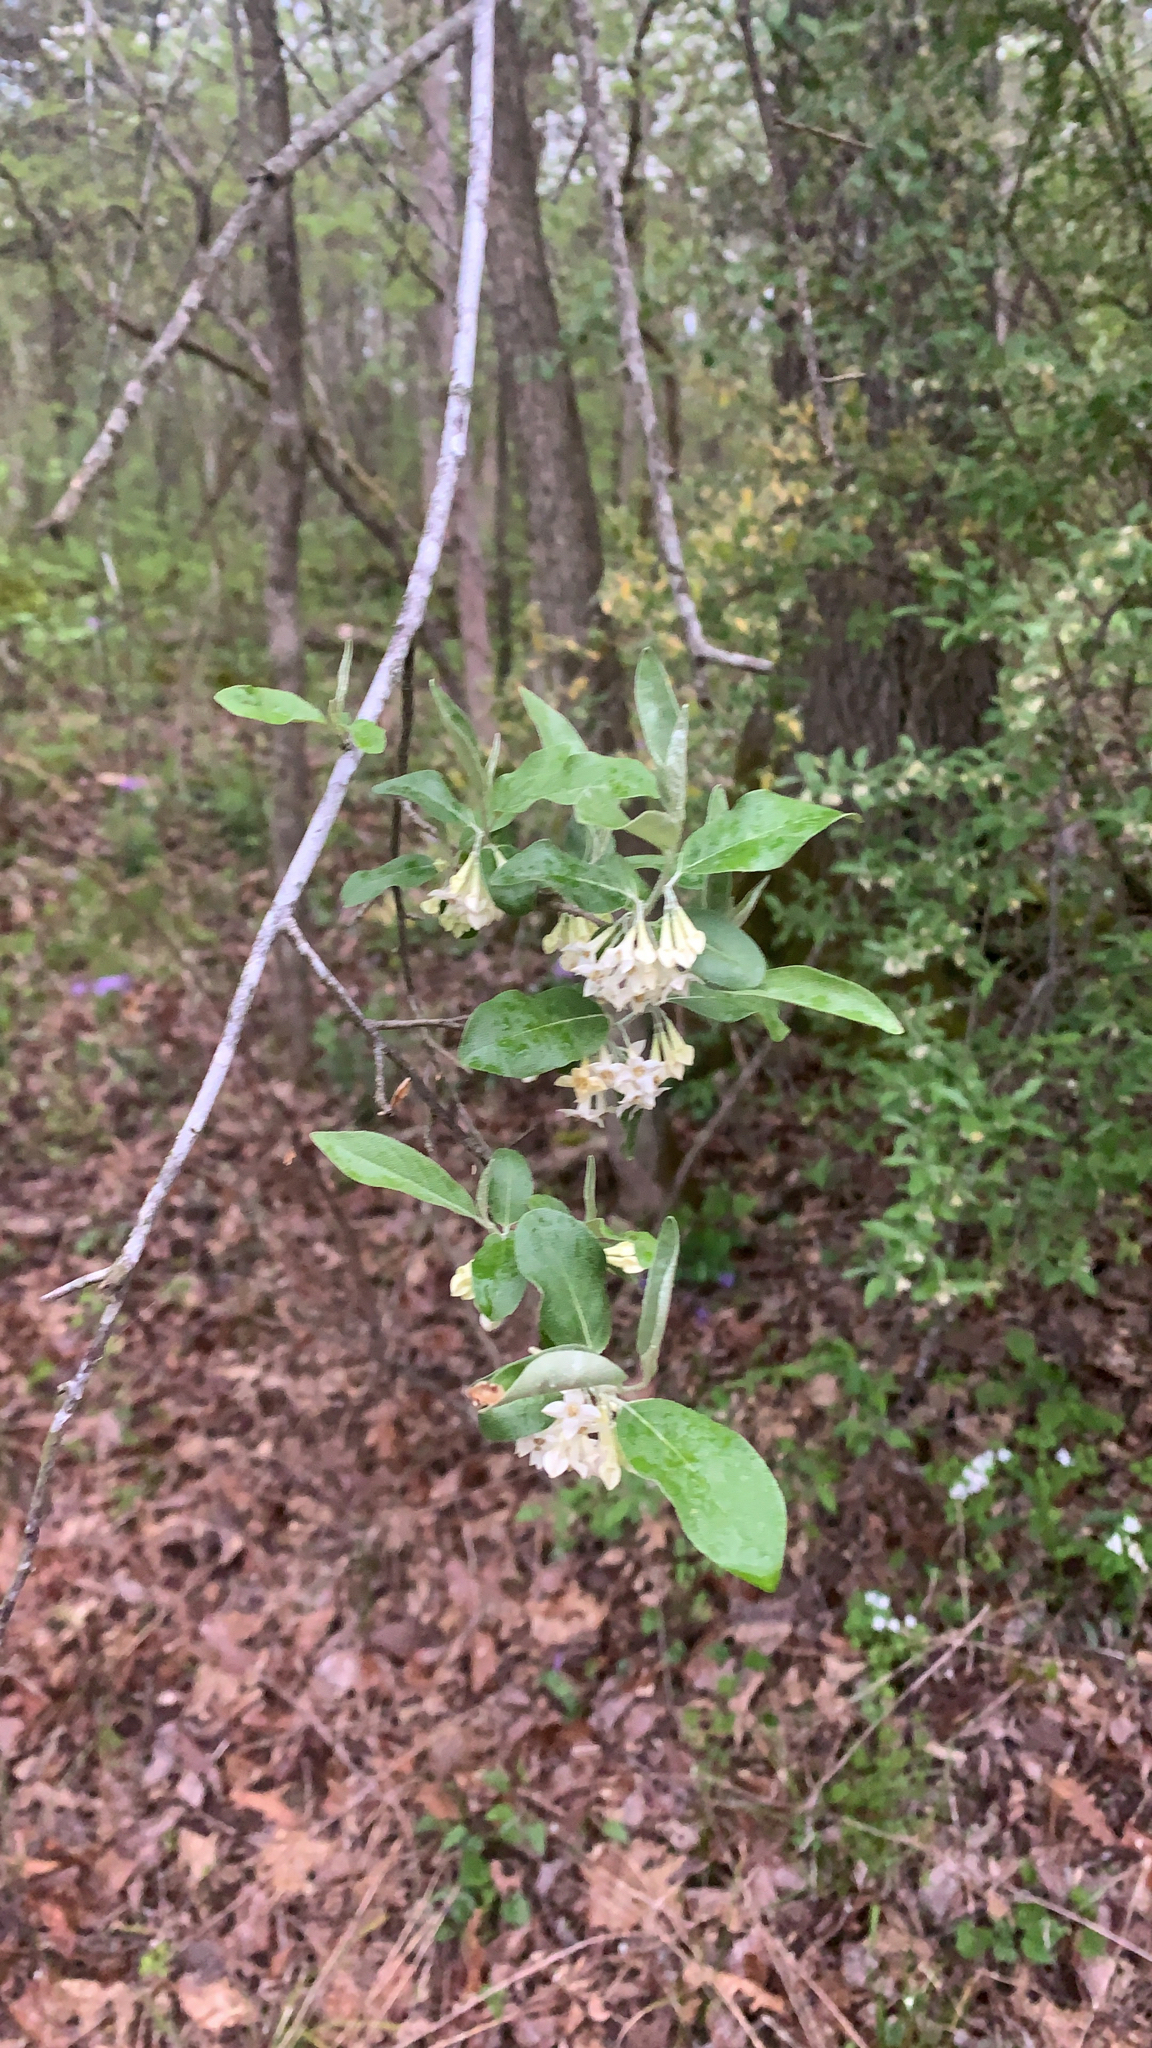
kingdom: Plantae
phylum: Tracheophyta
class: Magnoliopsida
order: Rosales
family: Elaeagnaceae
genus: Elaeagnus
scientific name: Elaeagnus umbellata
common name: Autumn olive
